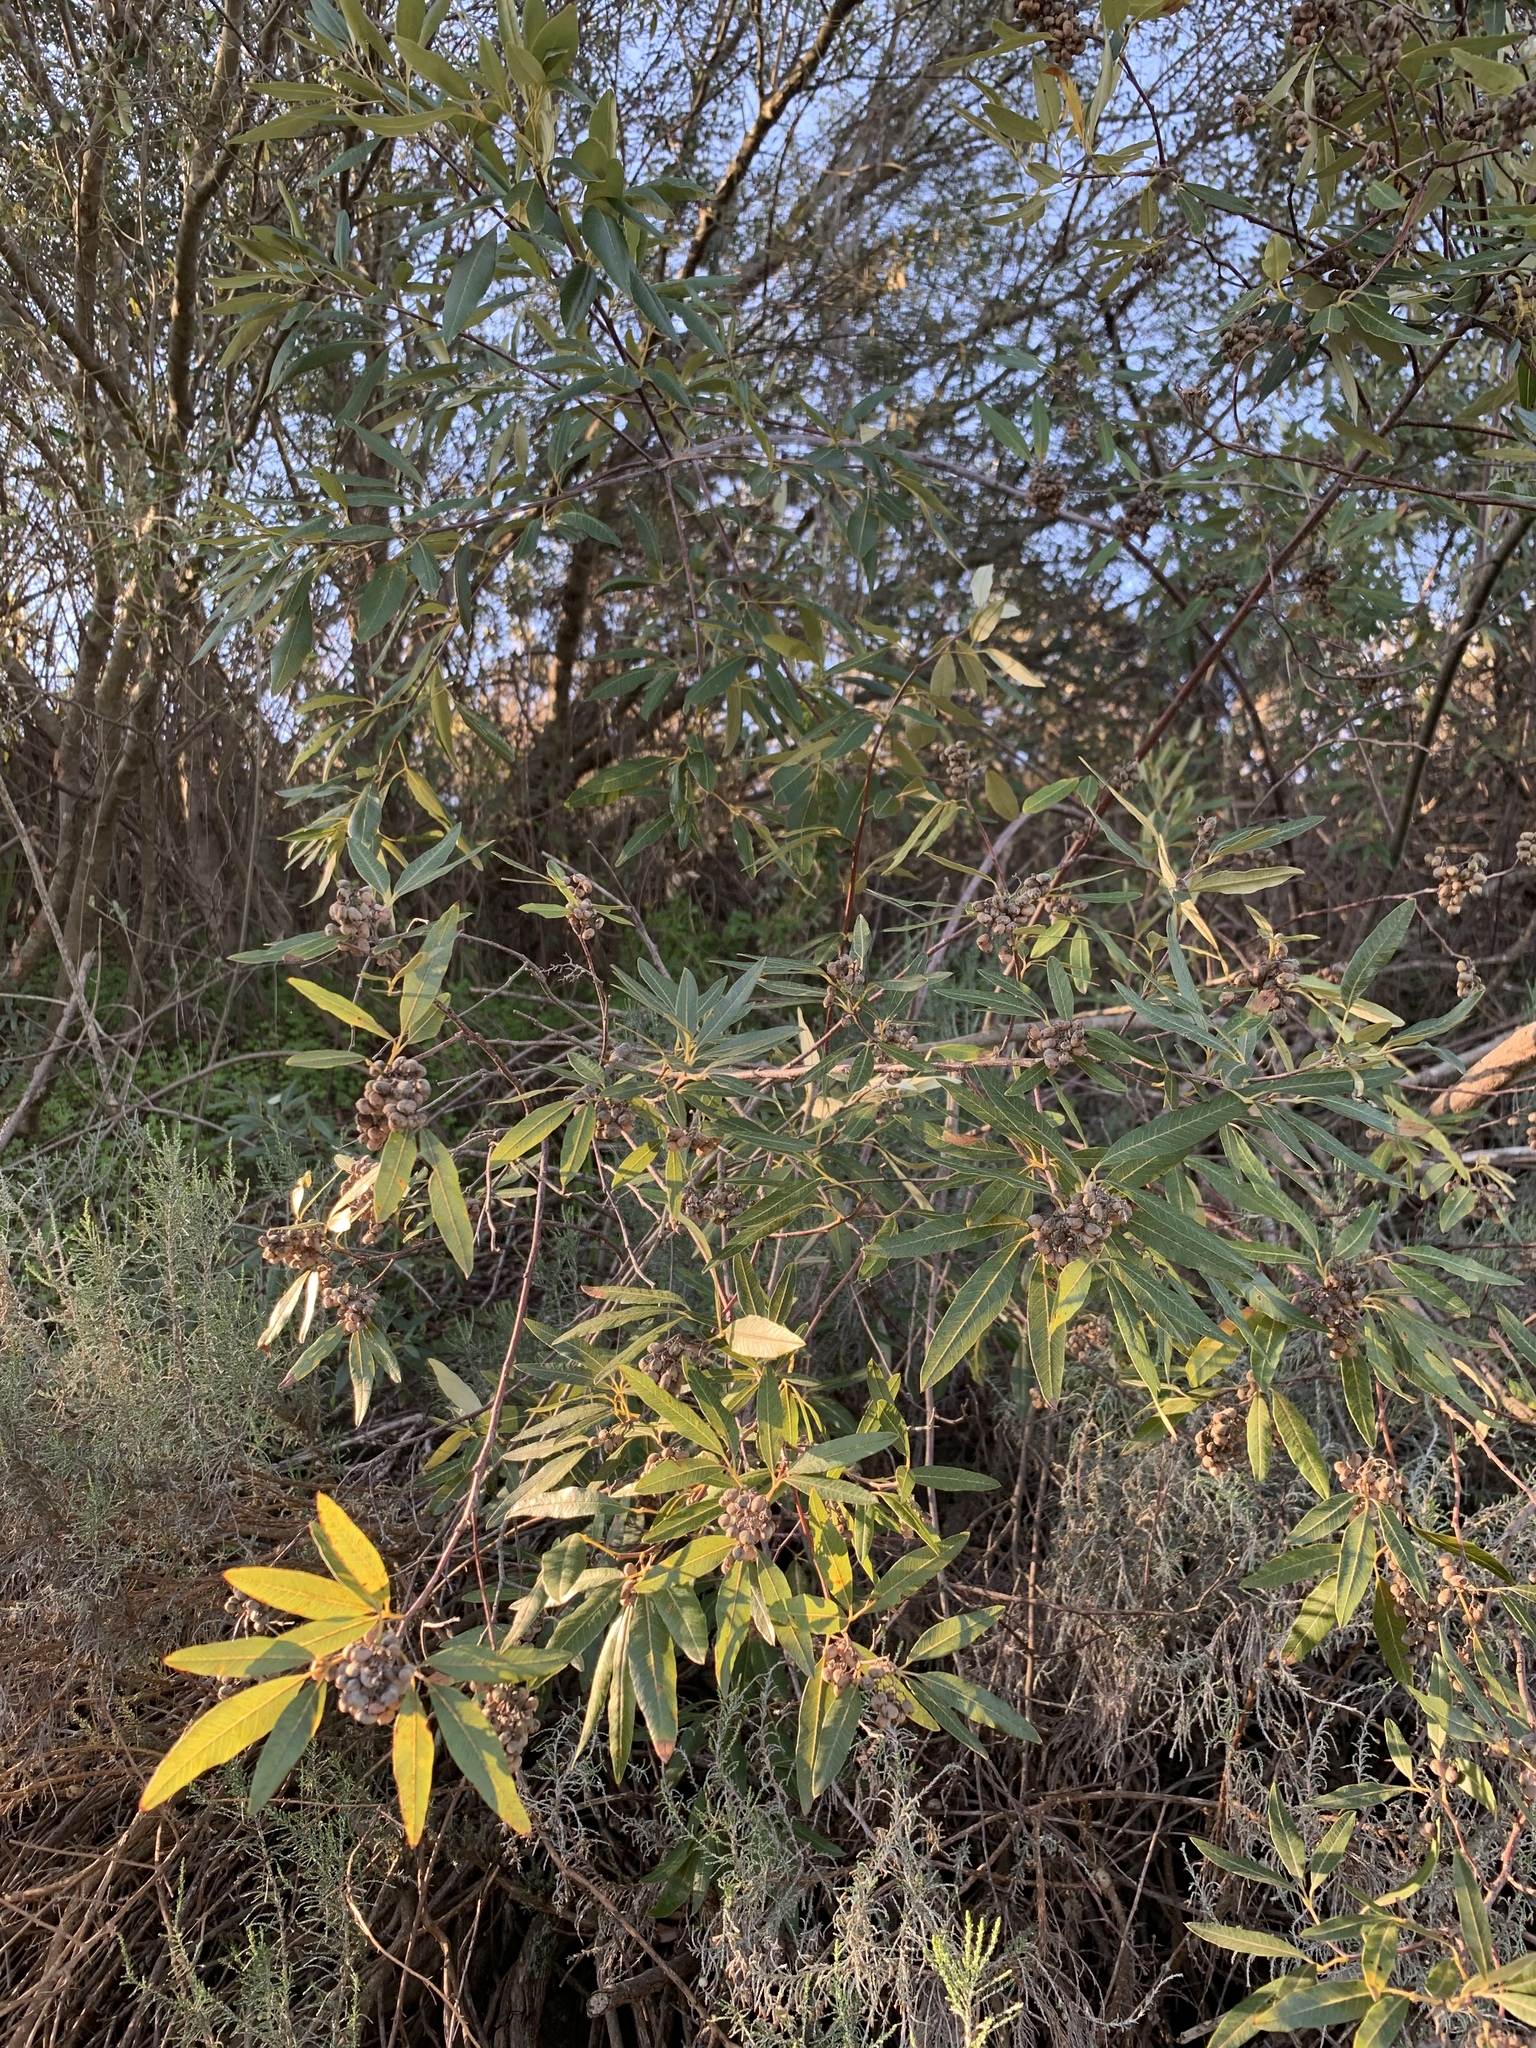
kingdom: Plantae
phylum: Tracheophyta
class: Magnoliopsida
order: Sapindales
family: Anacardiaceae
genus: Searsia
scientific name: Searsia angustifolia
